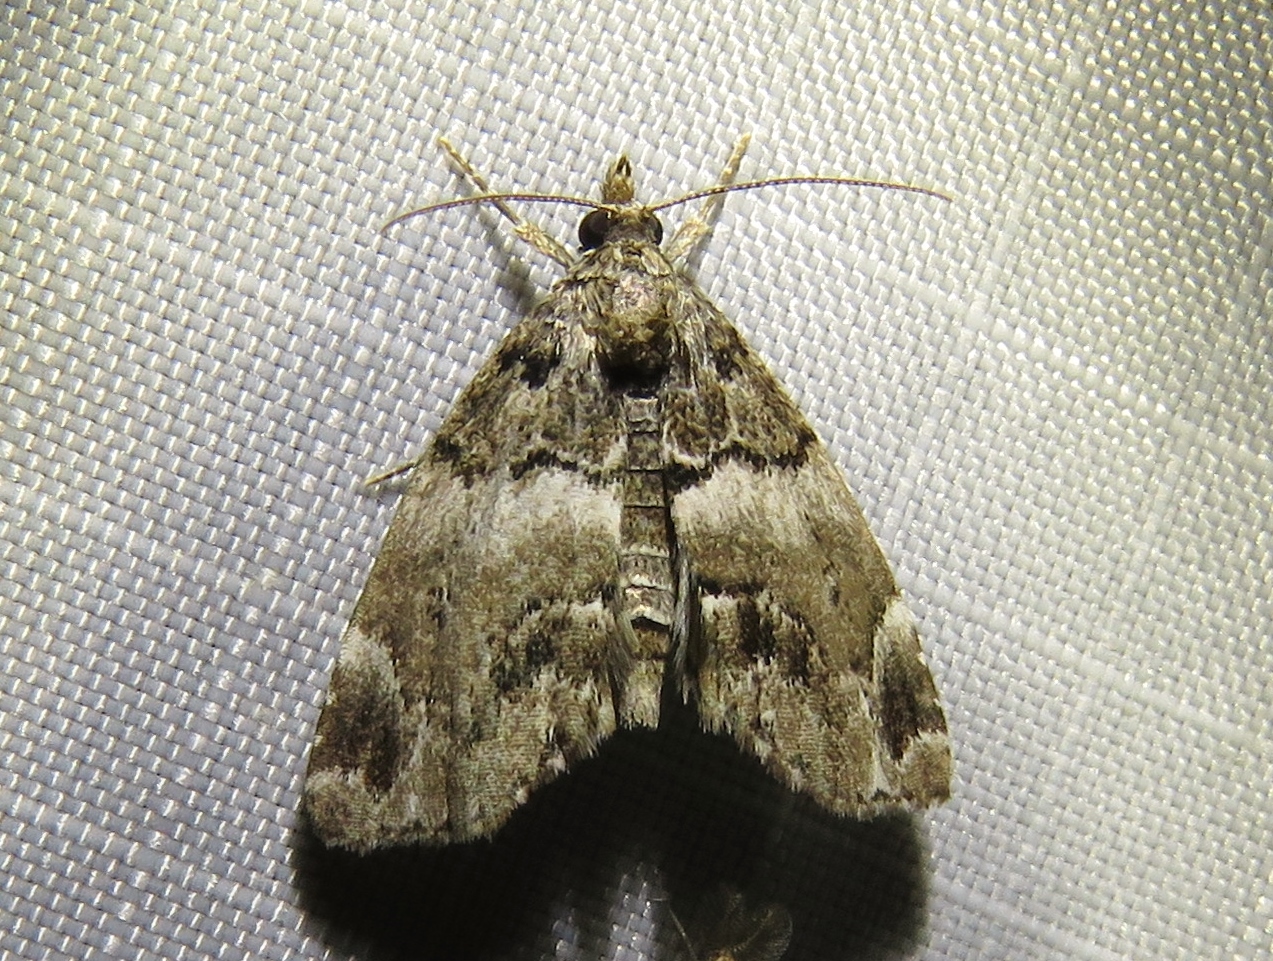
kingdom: Animalia
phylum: Arthropoda
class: Insecta
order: Lepidoptera
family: Erebidae
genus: Cutina
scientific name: Cutina distincta
